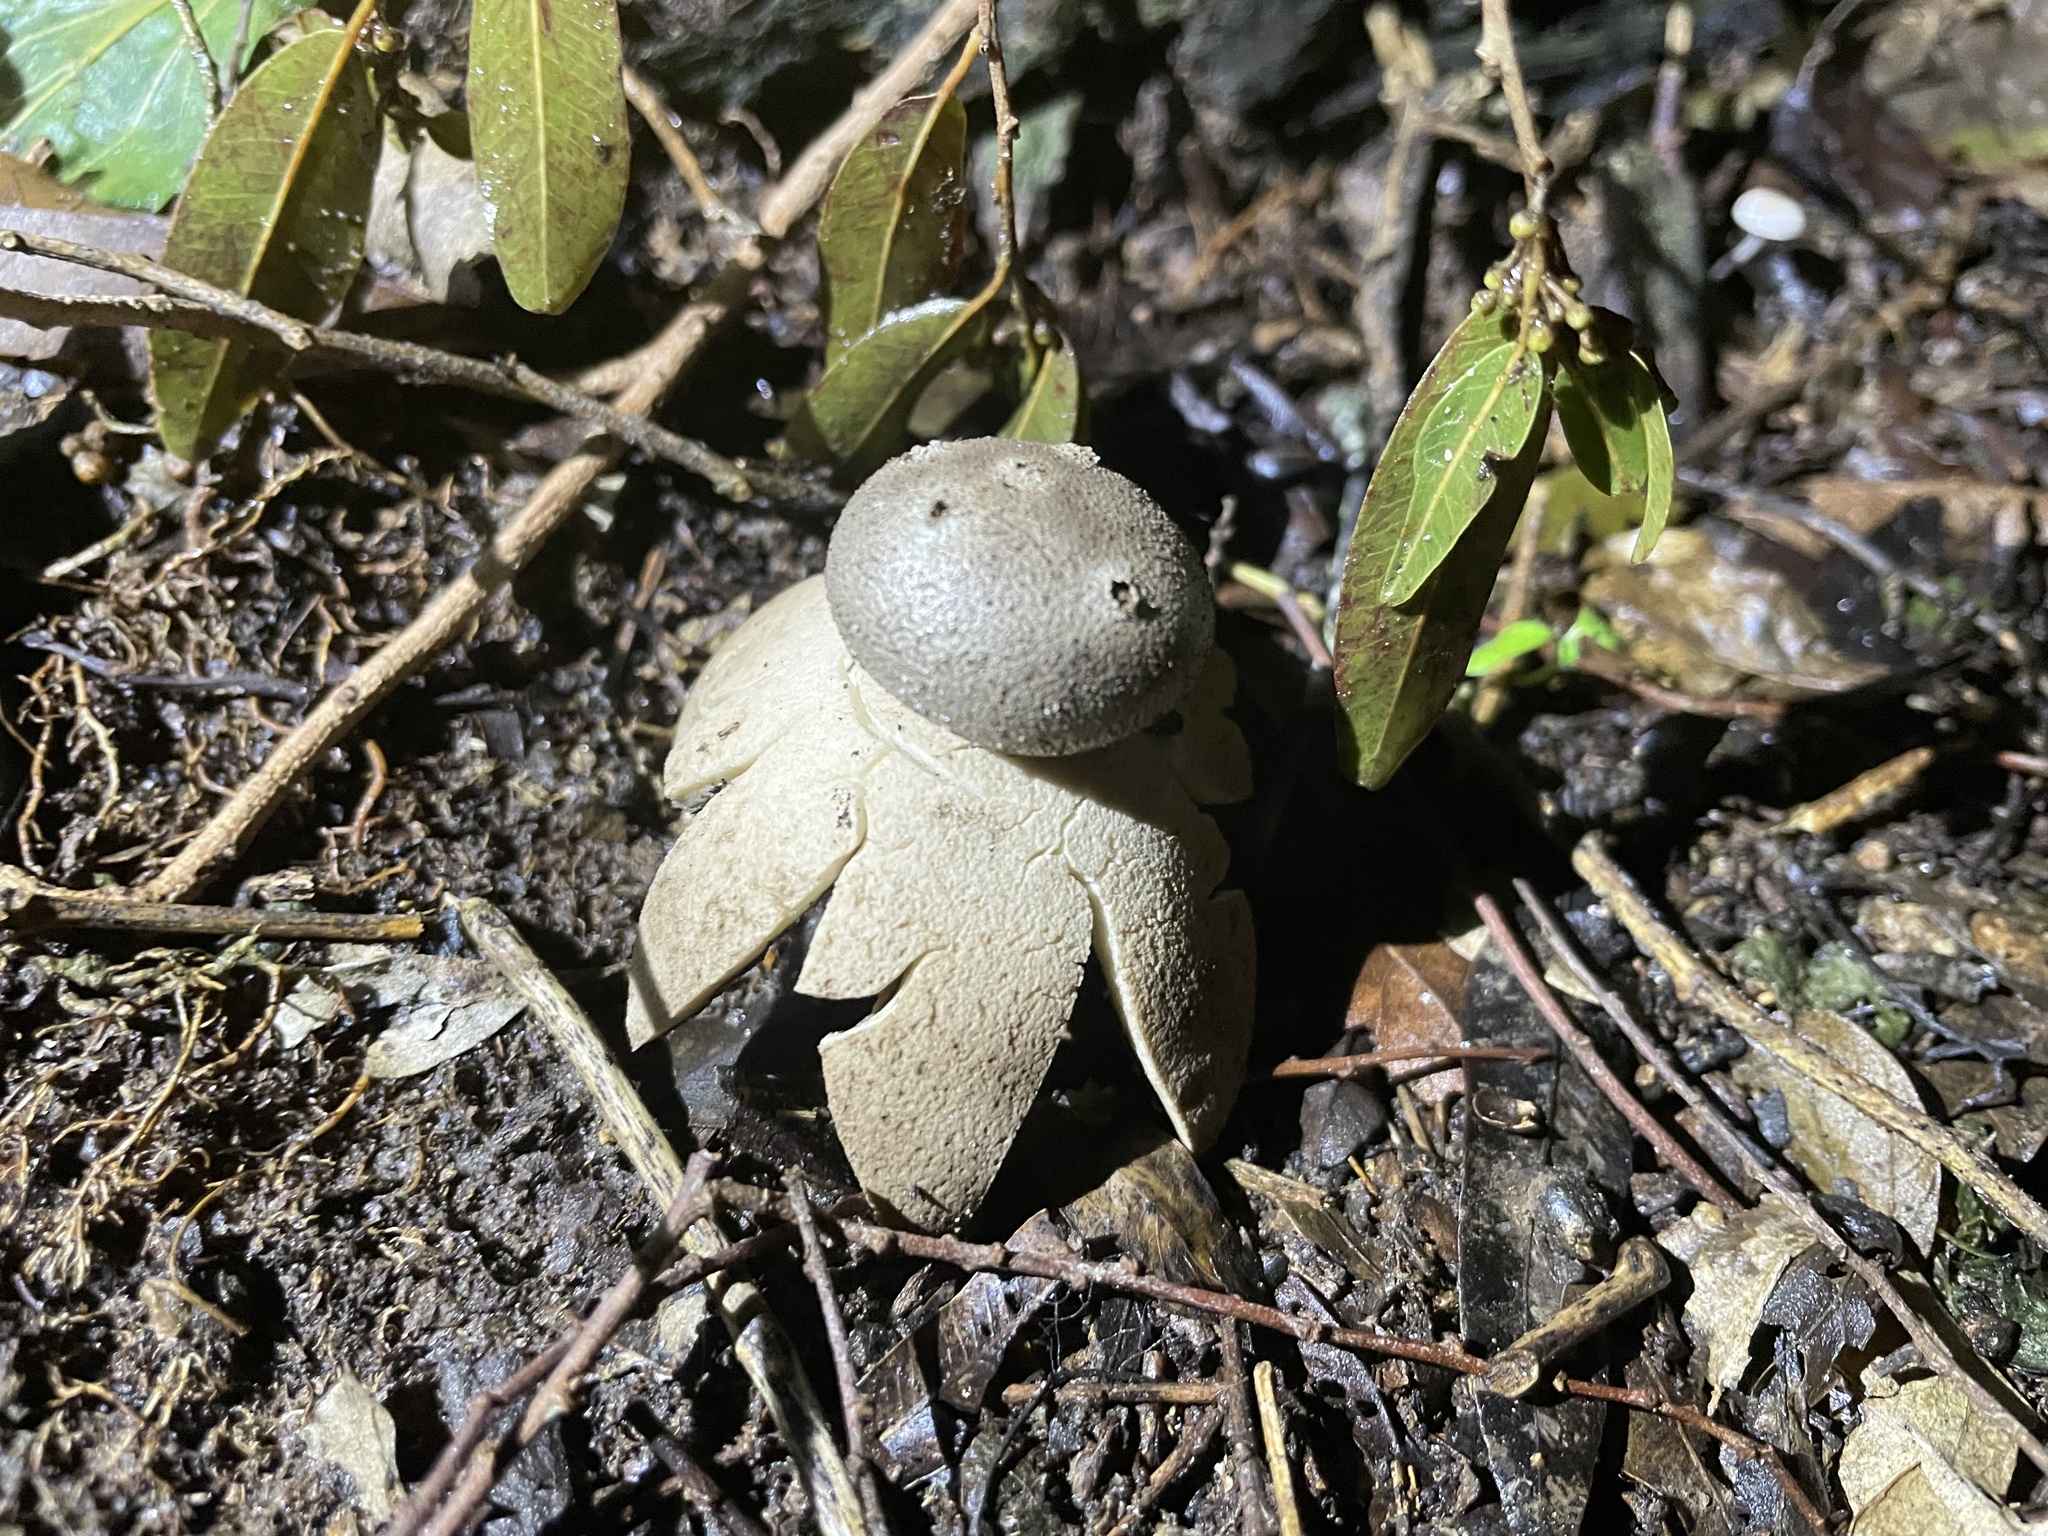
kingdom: Fungi
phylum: Basidiomycota
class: Agaricomycetes
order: Geastrales
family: Geastraceae
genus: Myriostoma
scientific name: Myriostoma calongei
